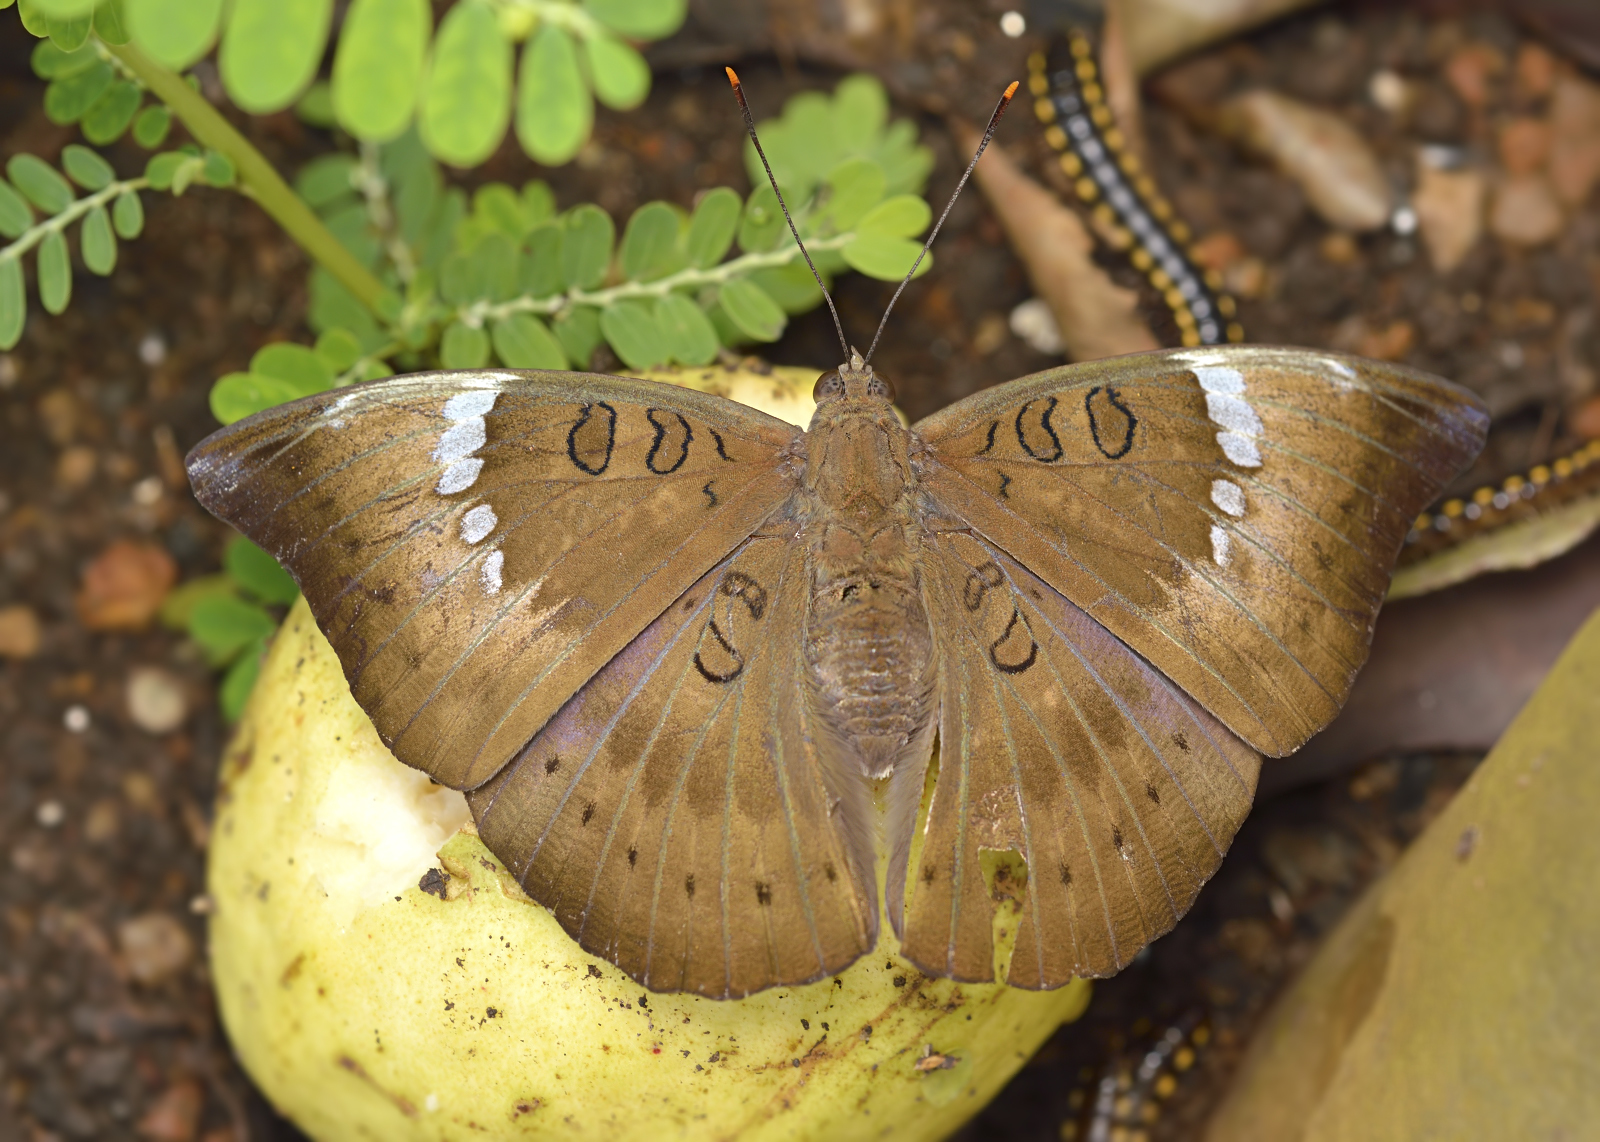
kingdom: Animalia
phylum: Arthropoda
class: Insecta
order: Lepidoptera
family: Nymphalidae
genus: Euthalia
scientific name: Euthalia aconthea
